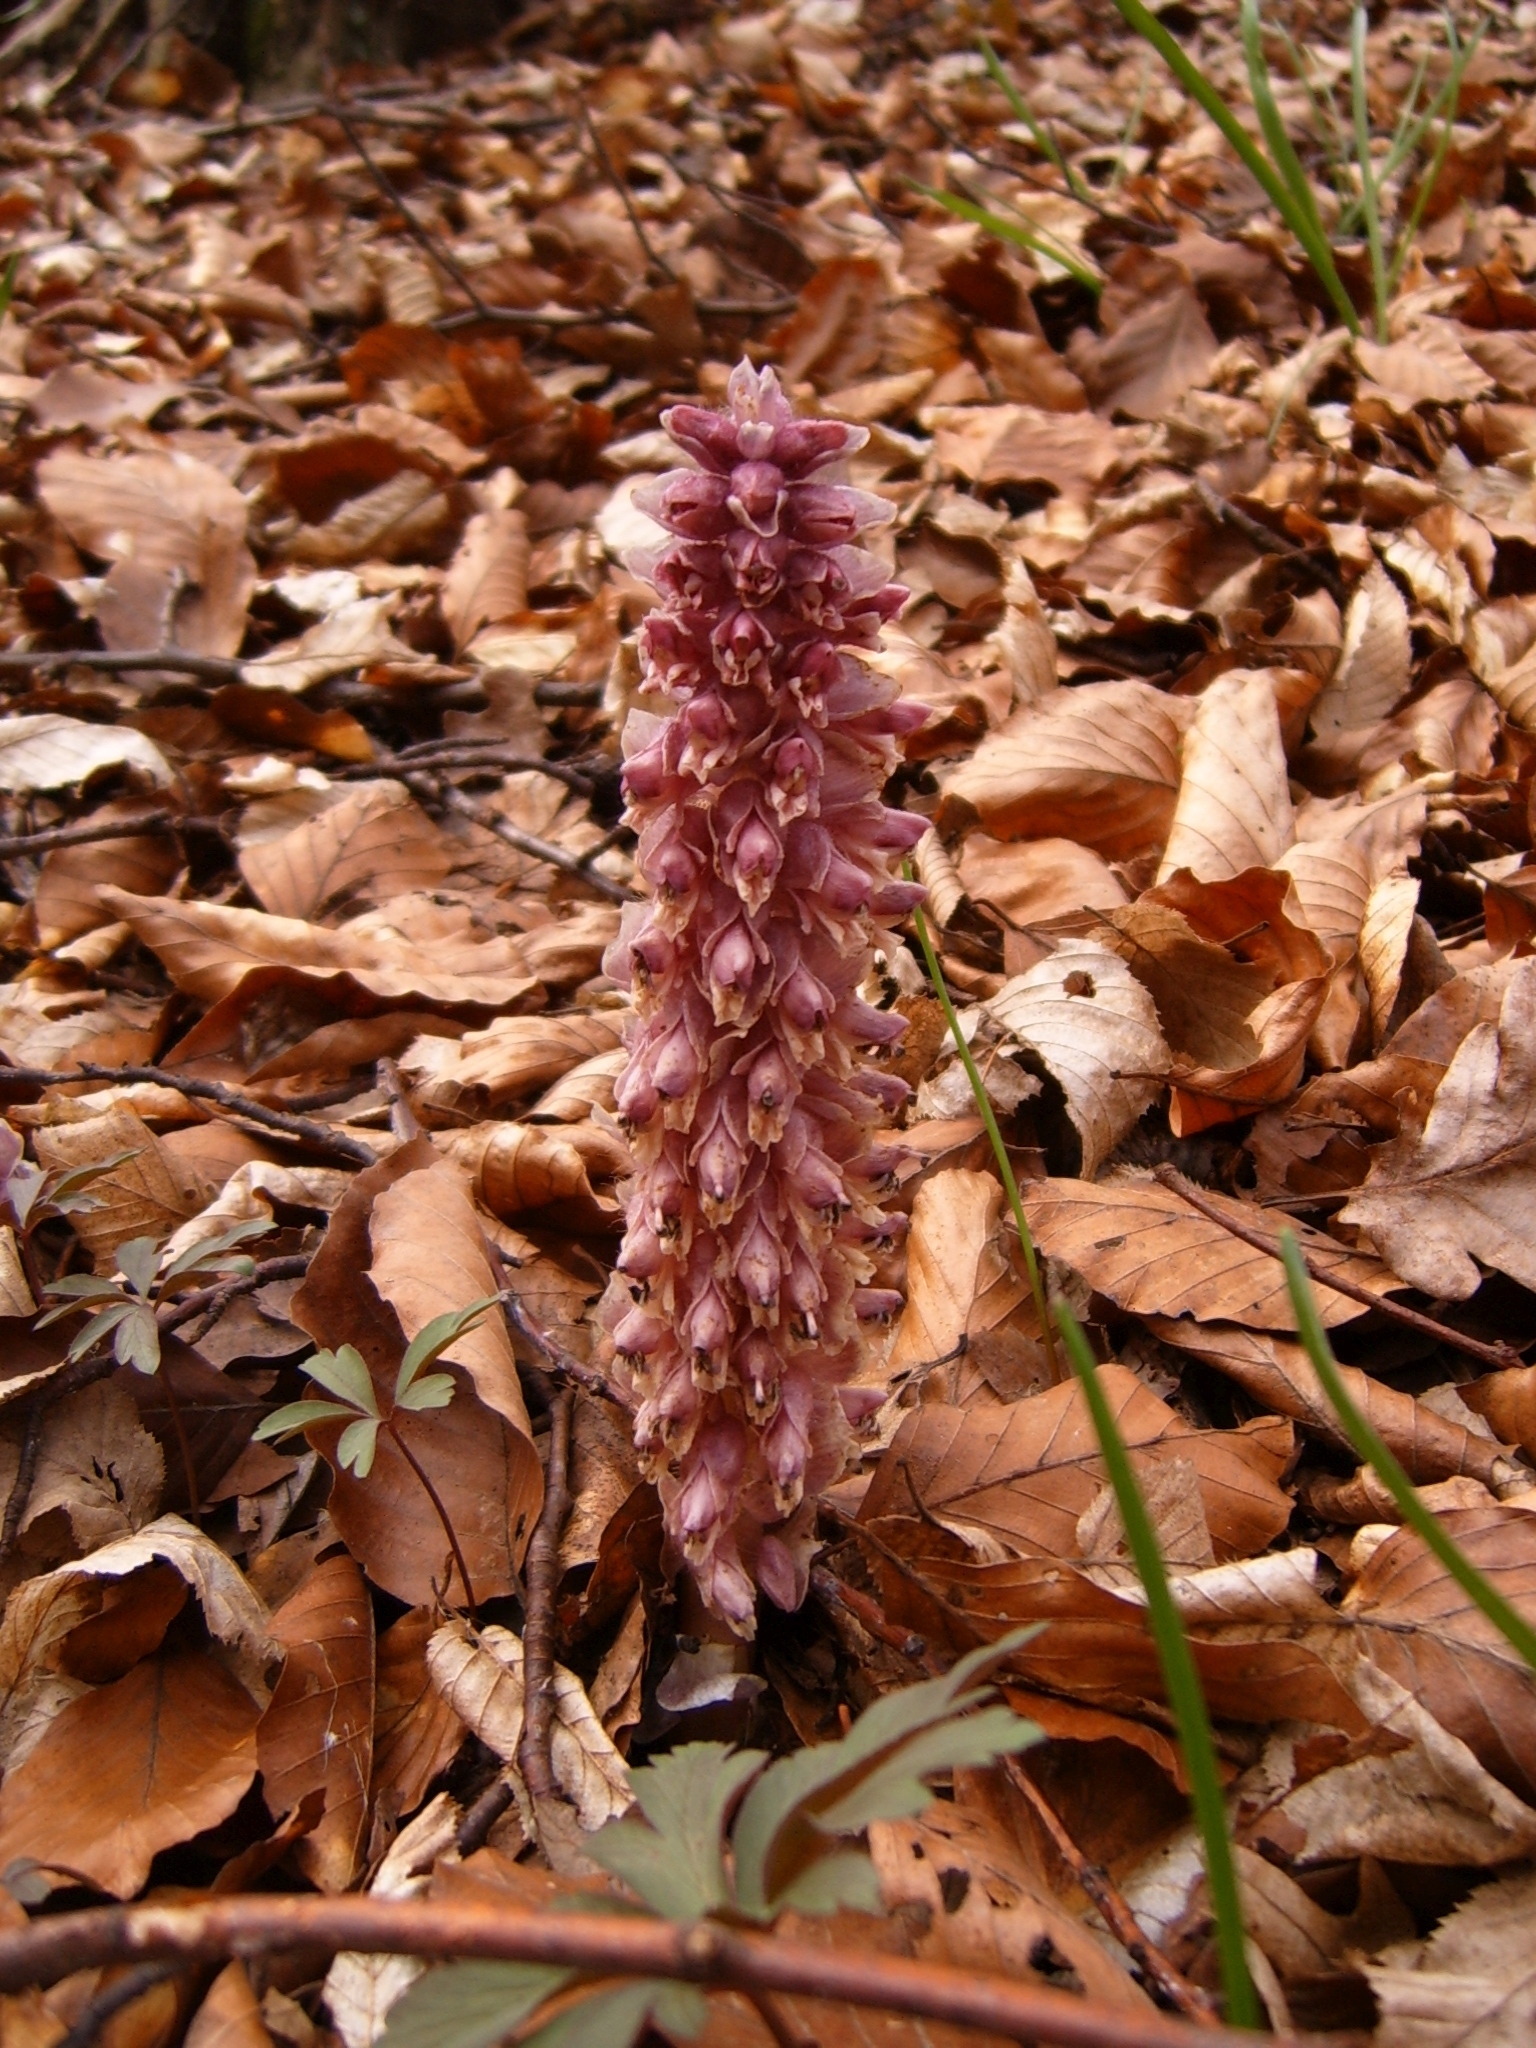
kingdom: Plantae
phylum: Tracheophyta
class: Magnoliopsida
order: Lamiales
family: Orobanchaceae
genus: Lathraea
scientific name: Lathraea squamaria
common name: Toothwort
